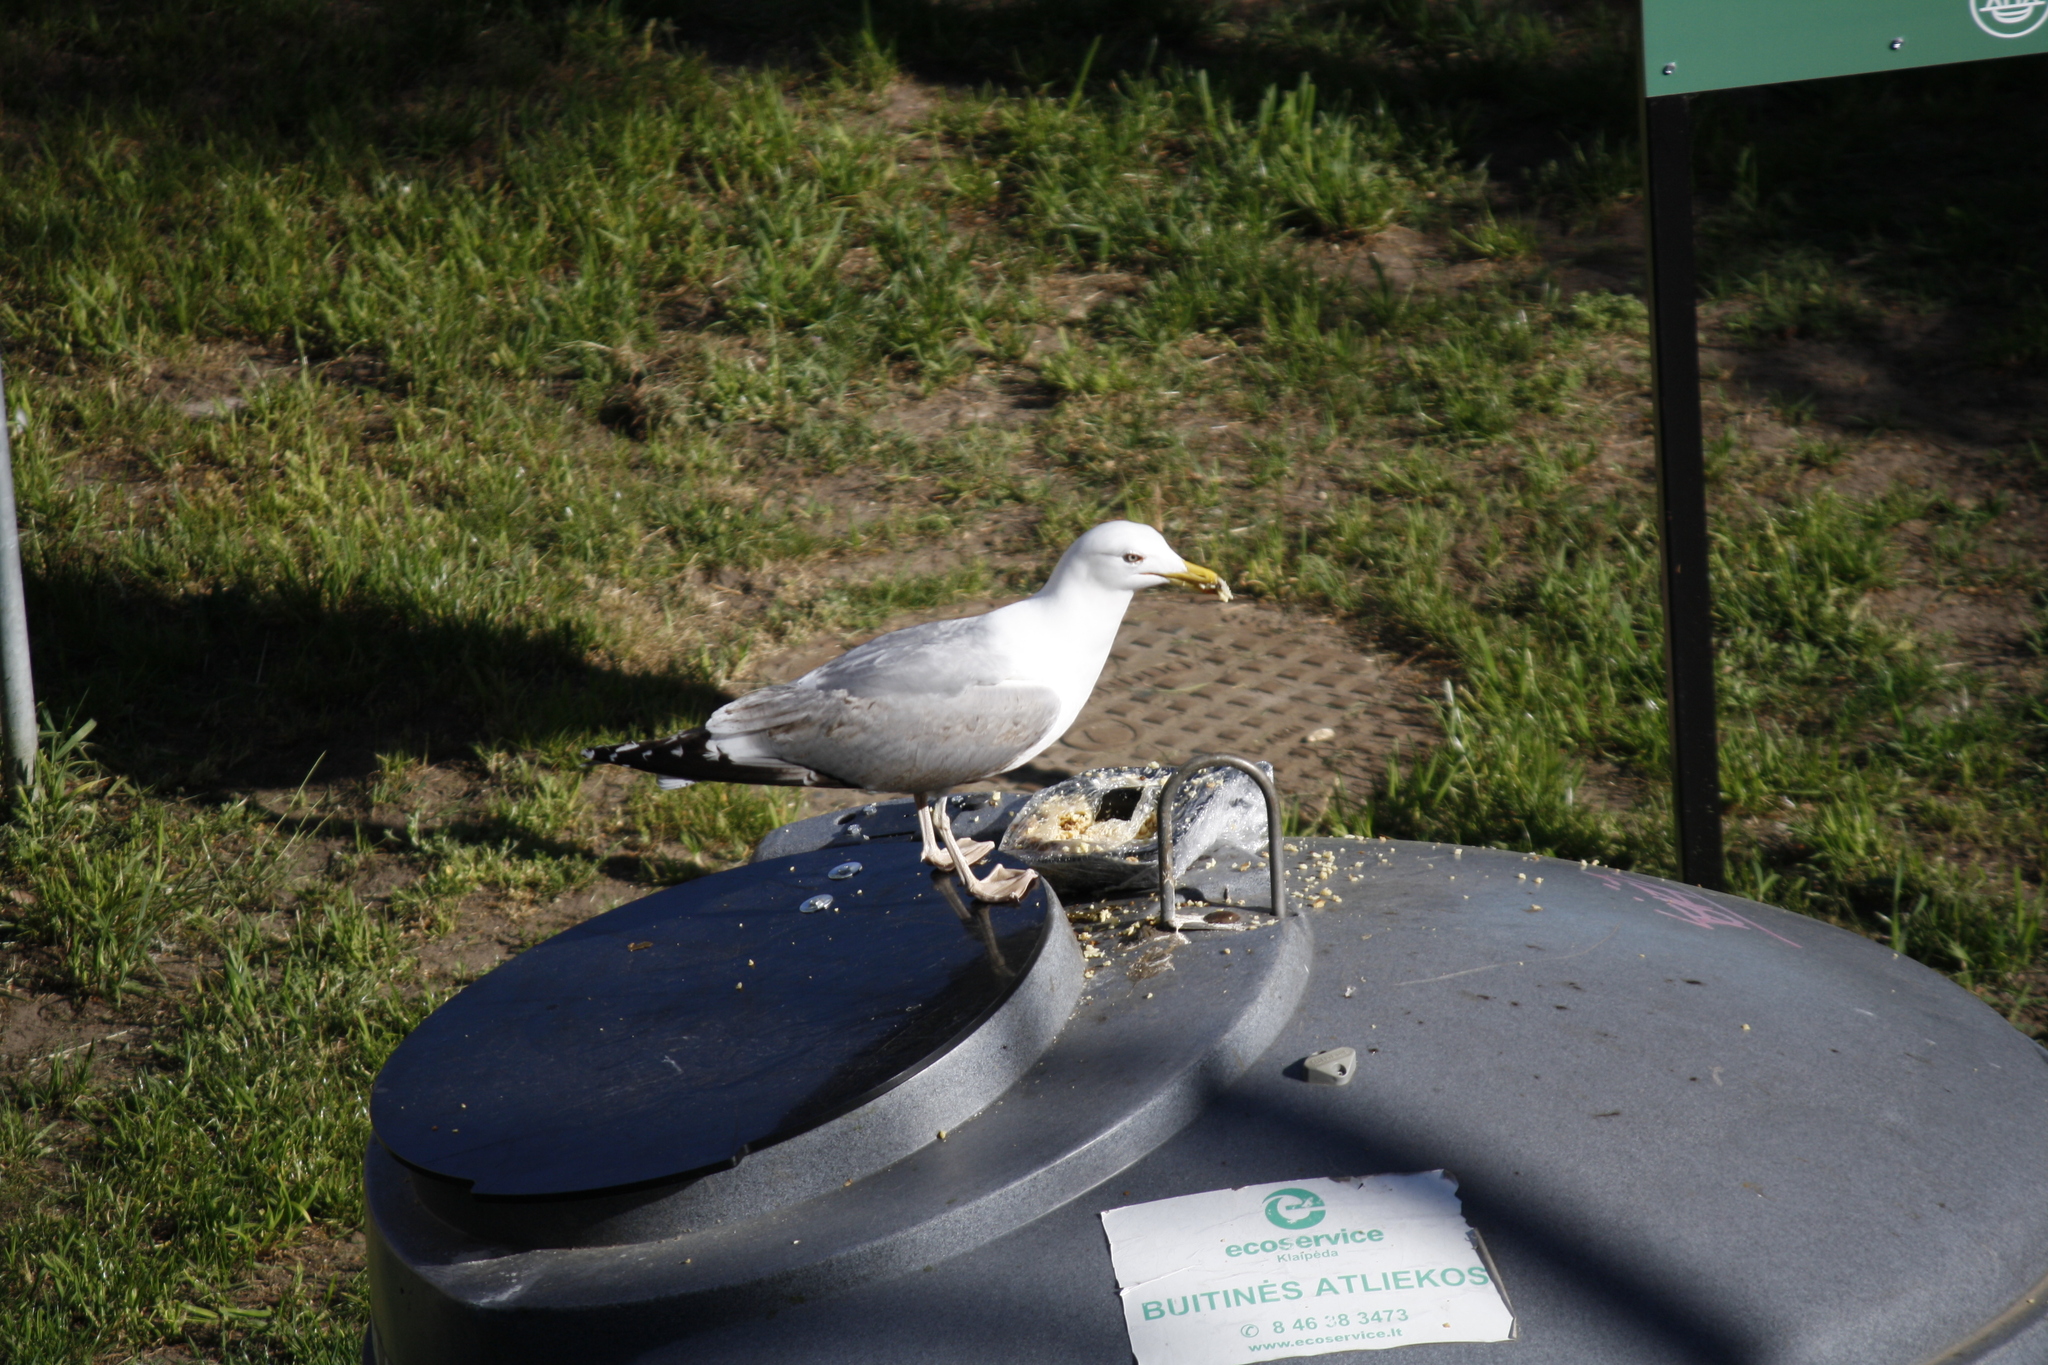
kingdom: Animalia
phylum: Chordata
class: Aves
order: Charadriiformes
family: Laridae
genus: Larus
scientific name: Larus argentatus
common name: Herring gull
